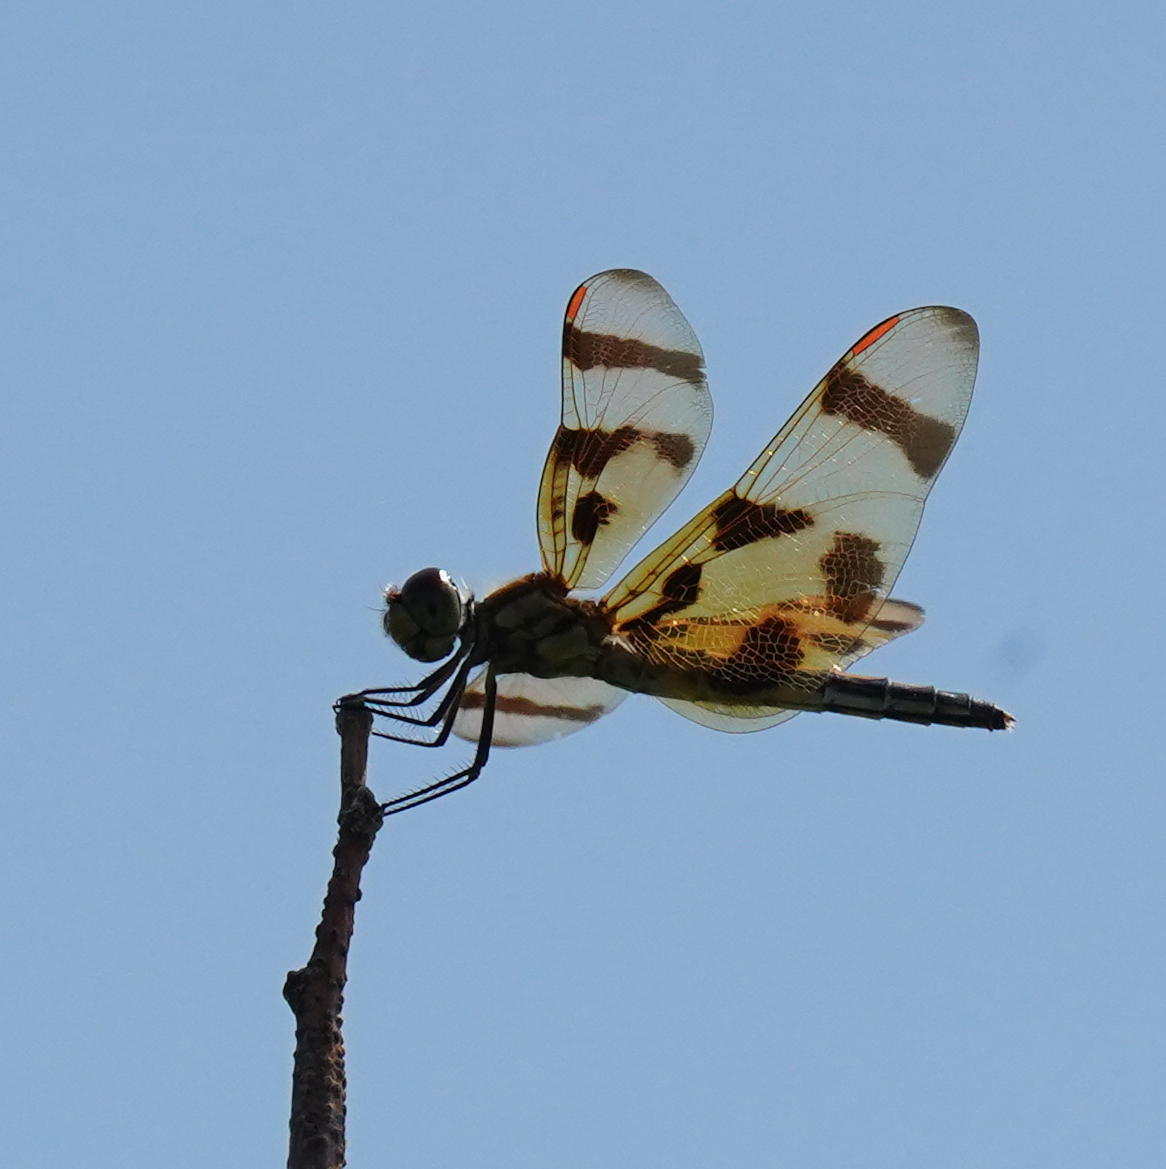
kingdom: Animalia
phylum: Arthropoda
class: Insecta
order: Odonata
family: Libellulidae
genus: Celithemis
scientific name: Celithemis eponina
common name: Halloween pennant
